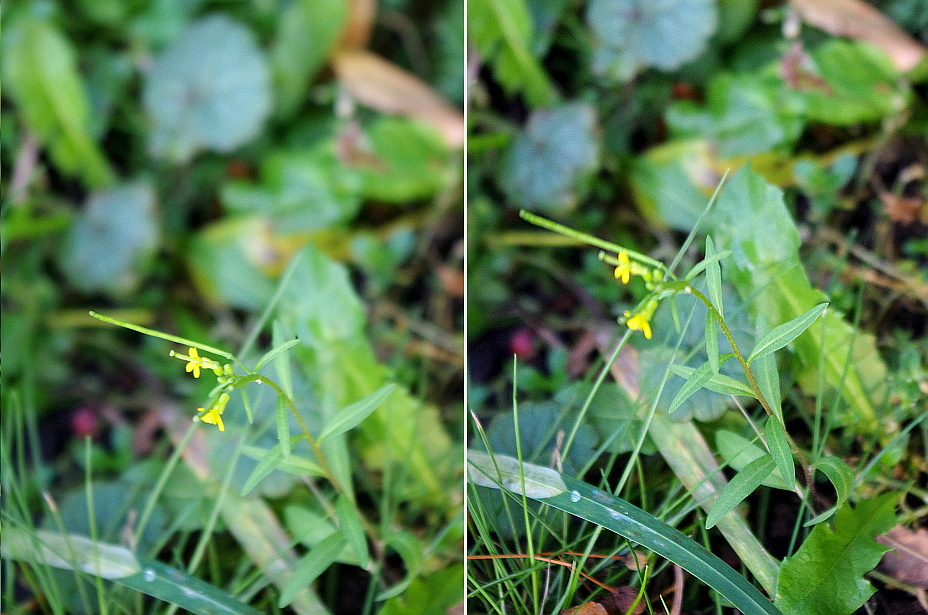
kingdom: Plantae
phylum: Tracheophyta
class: Magnoliopsida
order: Brassicales
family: Brassicaceae
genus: Erysimum
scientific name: Erysimum cheiranthoides
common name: Treacle mustard
